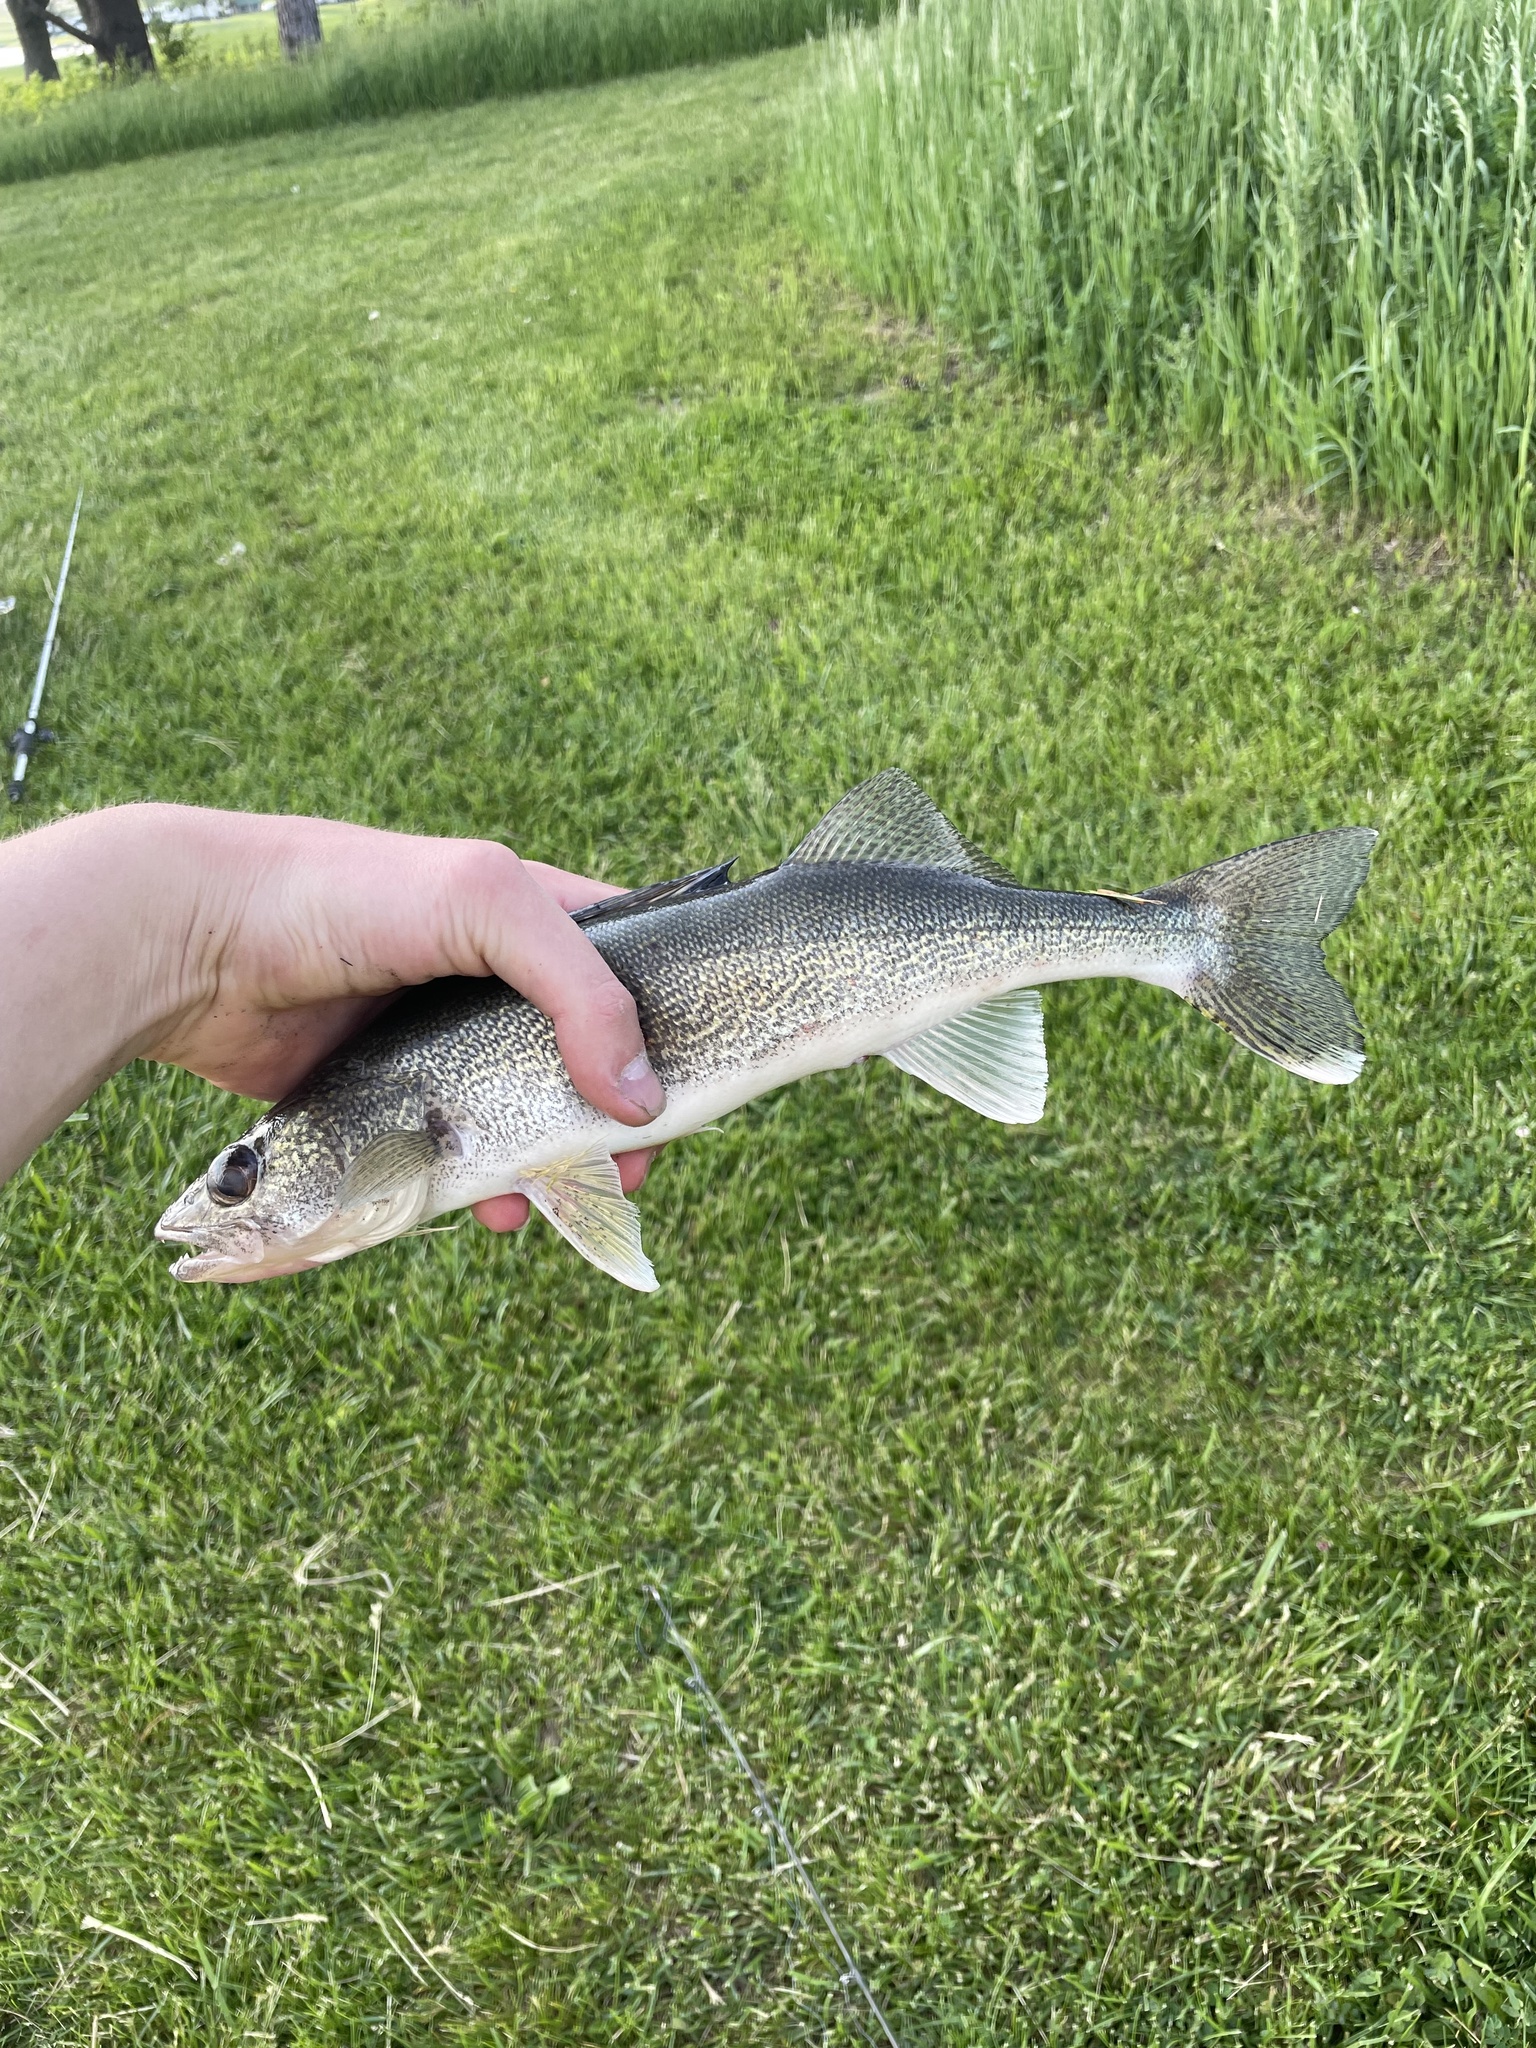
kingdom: Animalia
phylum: Chordata
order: Perciformes
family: Percidae
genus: Sander
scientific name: Sander vitreus
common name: Walleye
